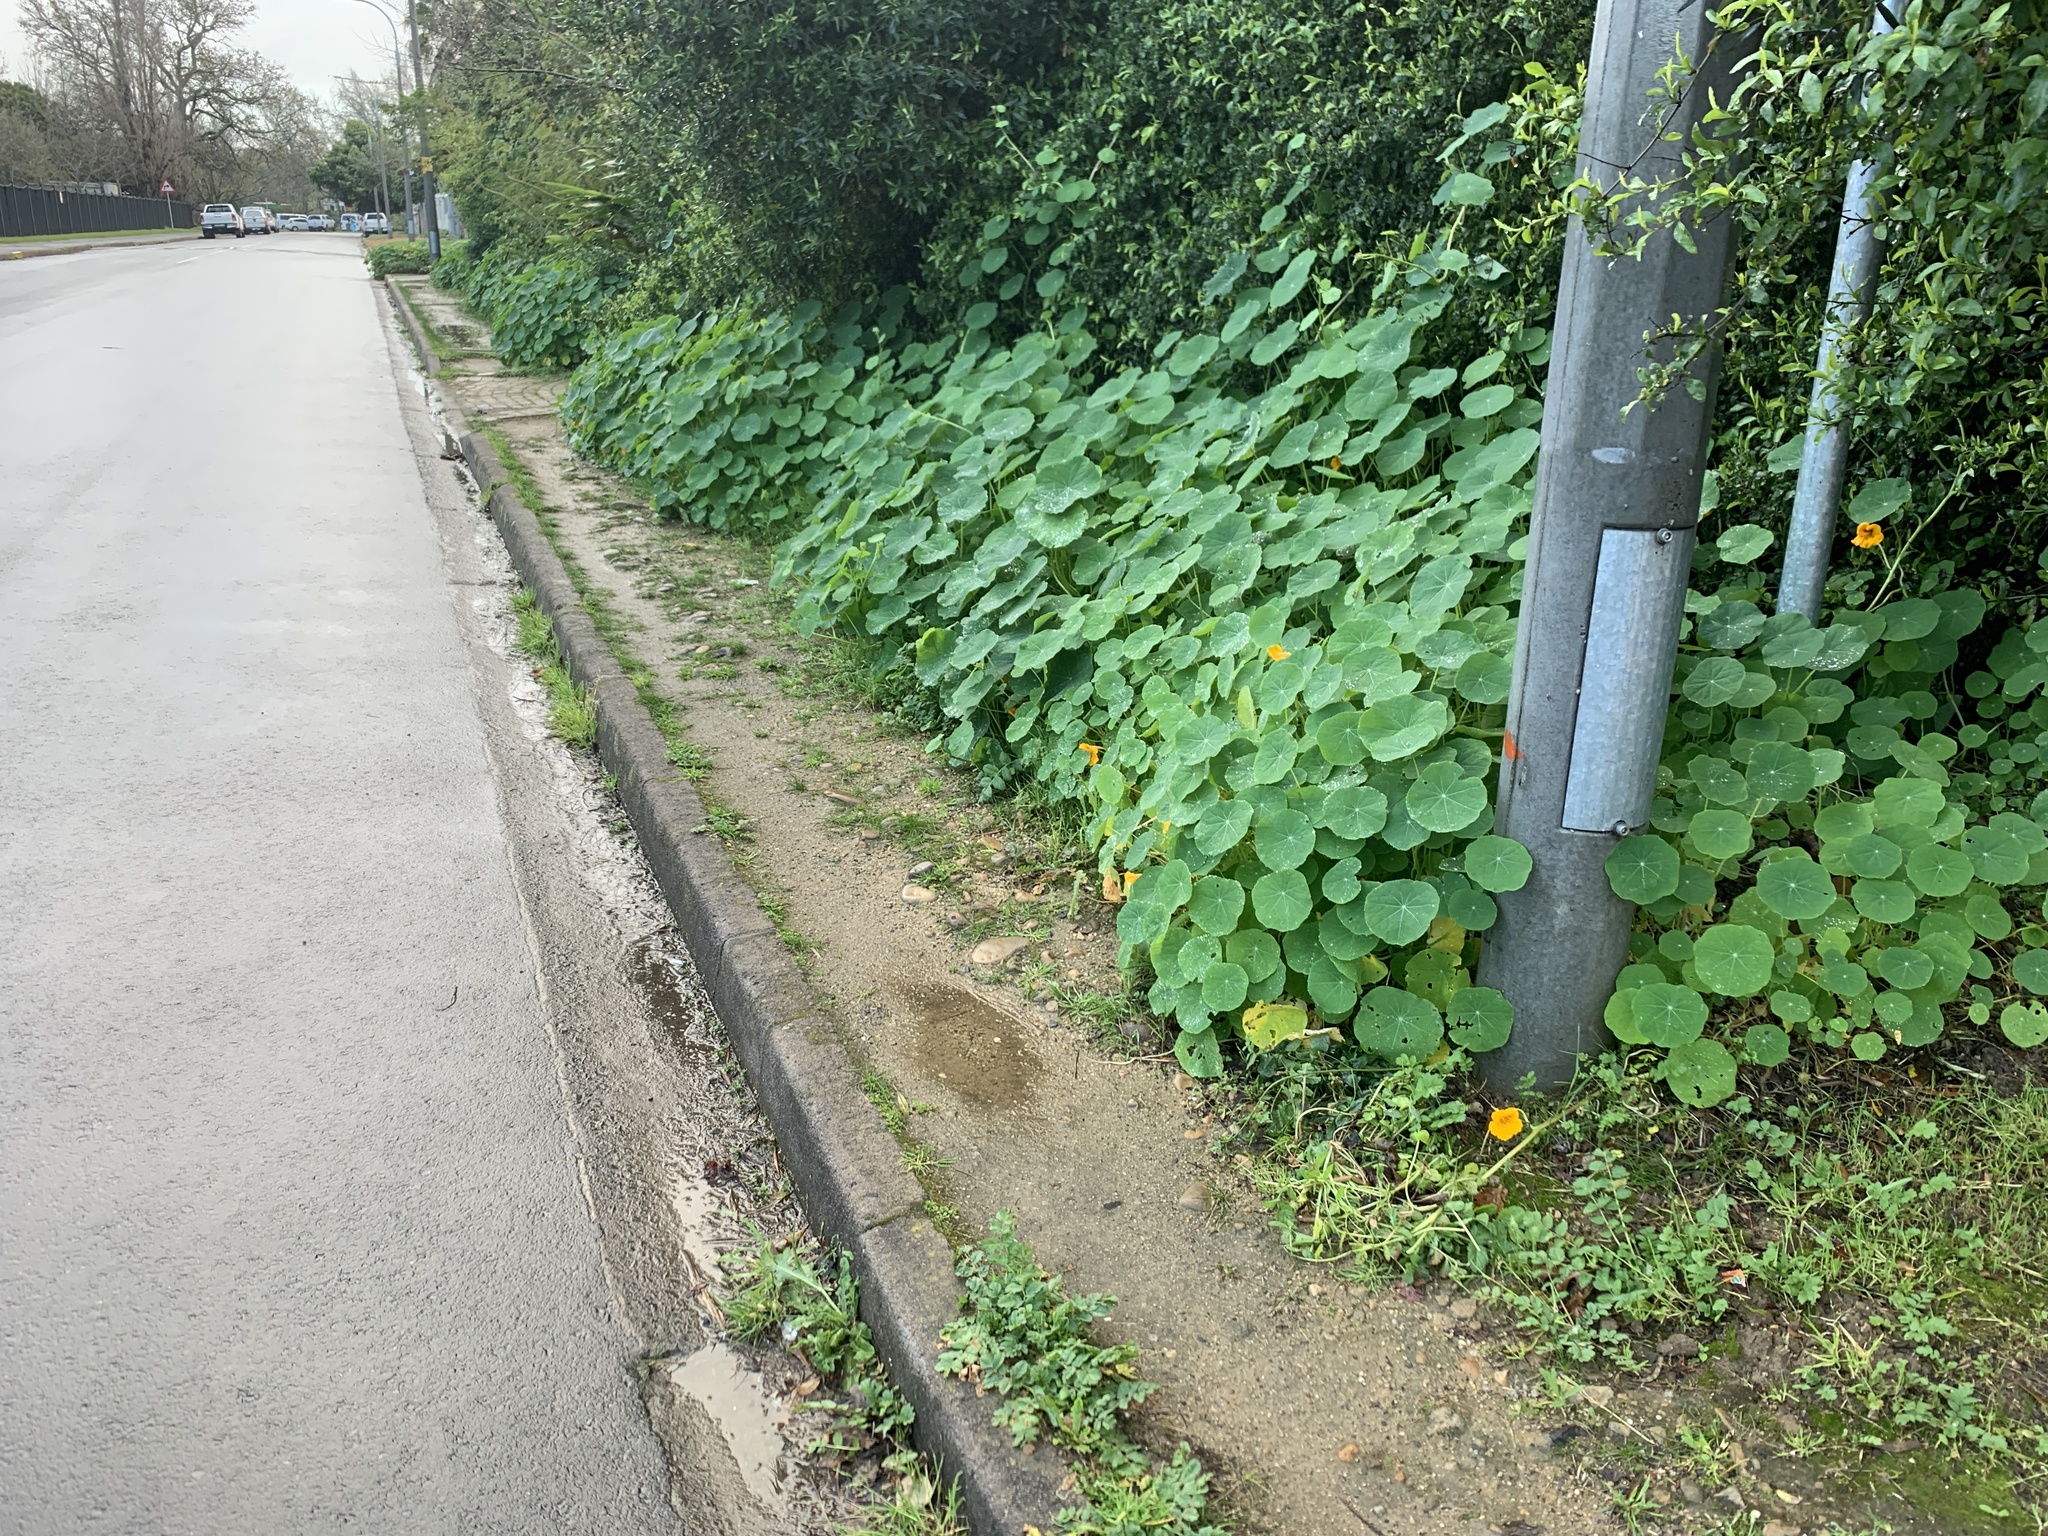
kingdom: Plantae
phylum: Tracheophyta
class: Magnoliopsida
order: Brassicales
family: Tropaeolaceae
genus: Tropaeolum
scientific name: Tropaeolum majus
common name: Nasturtium
